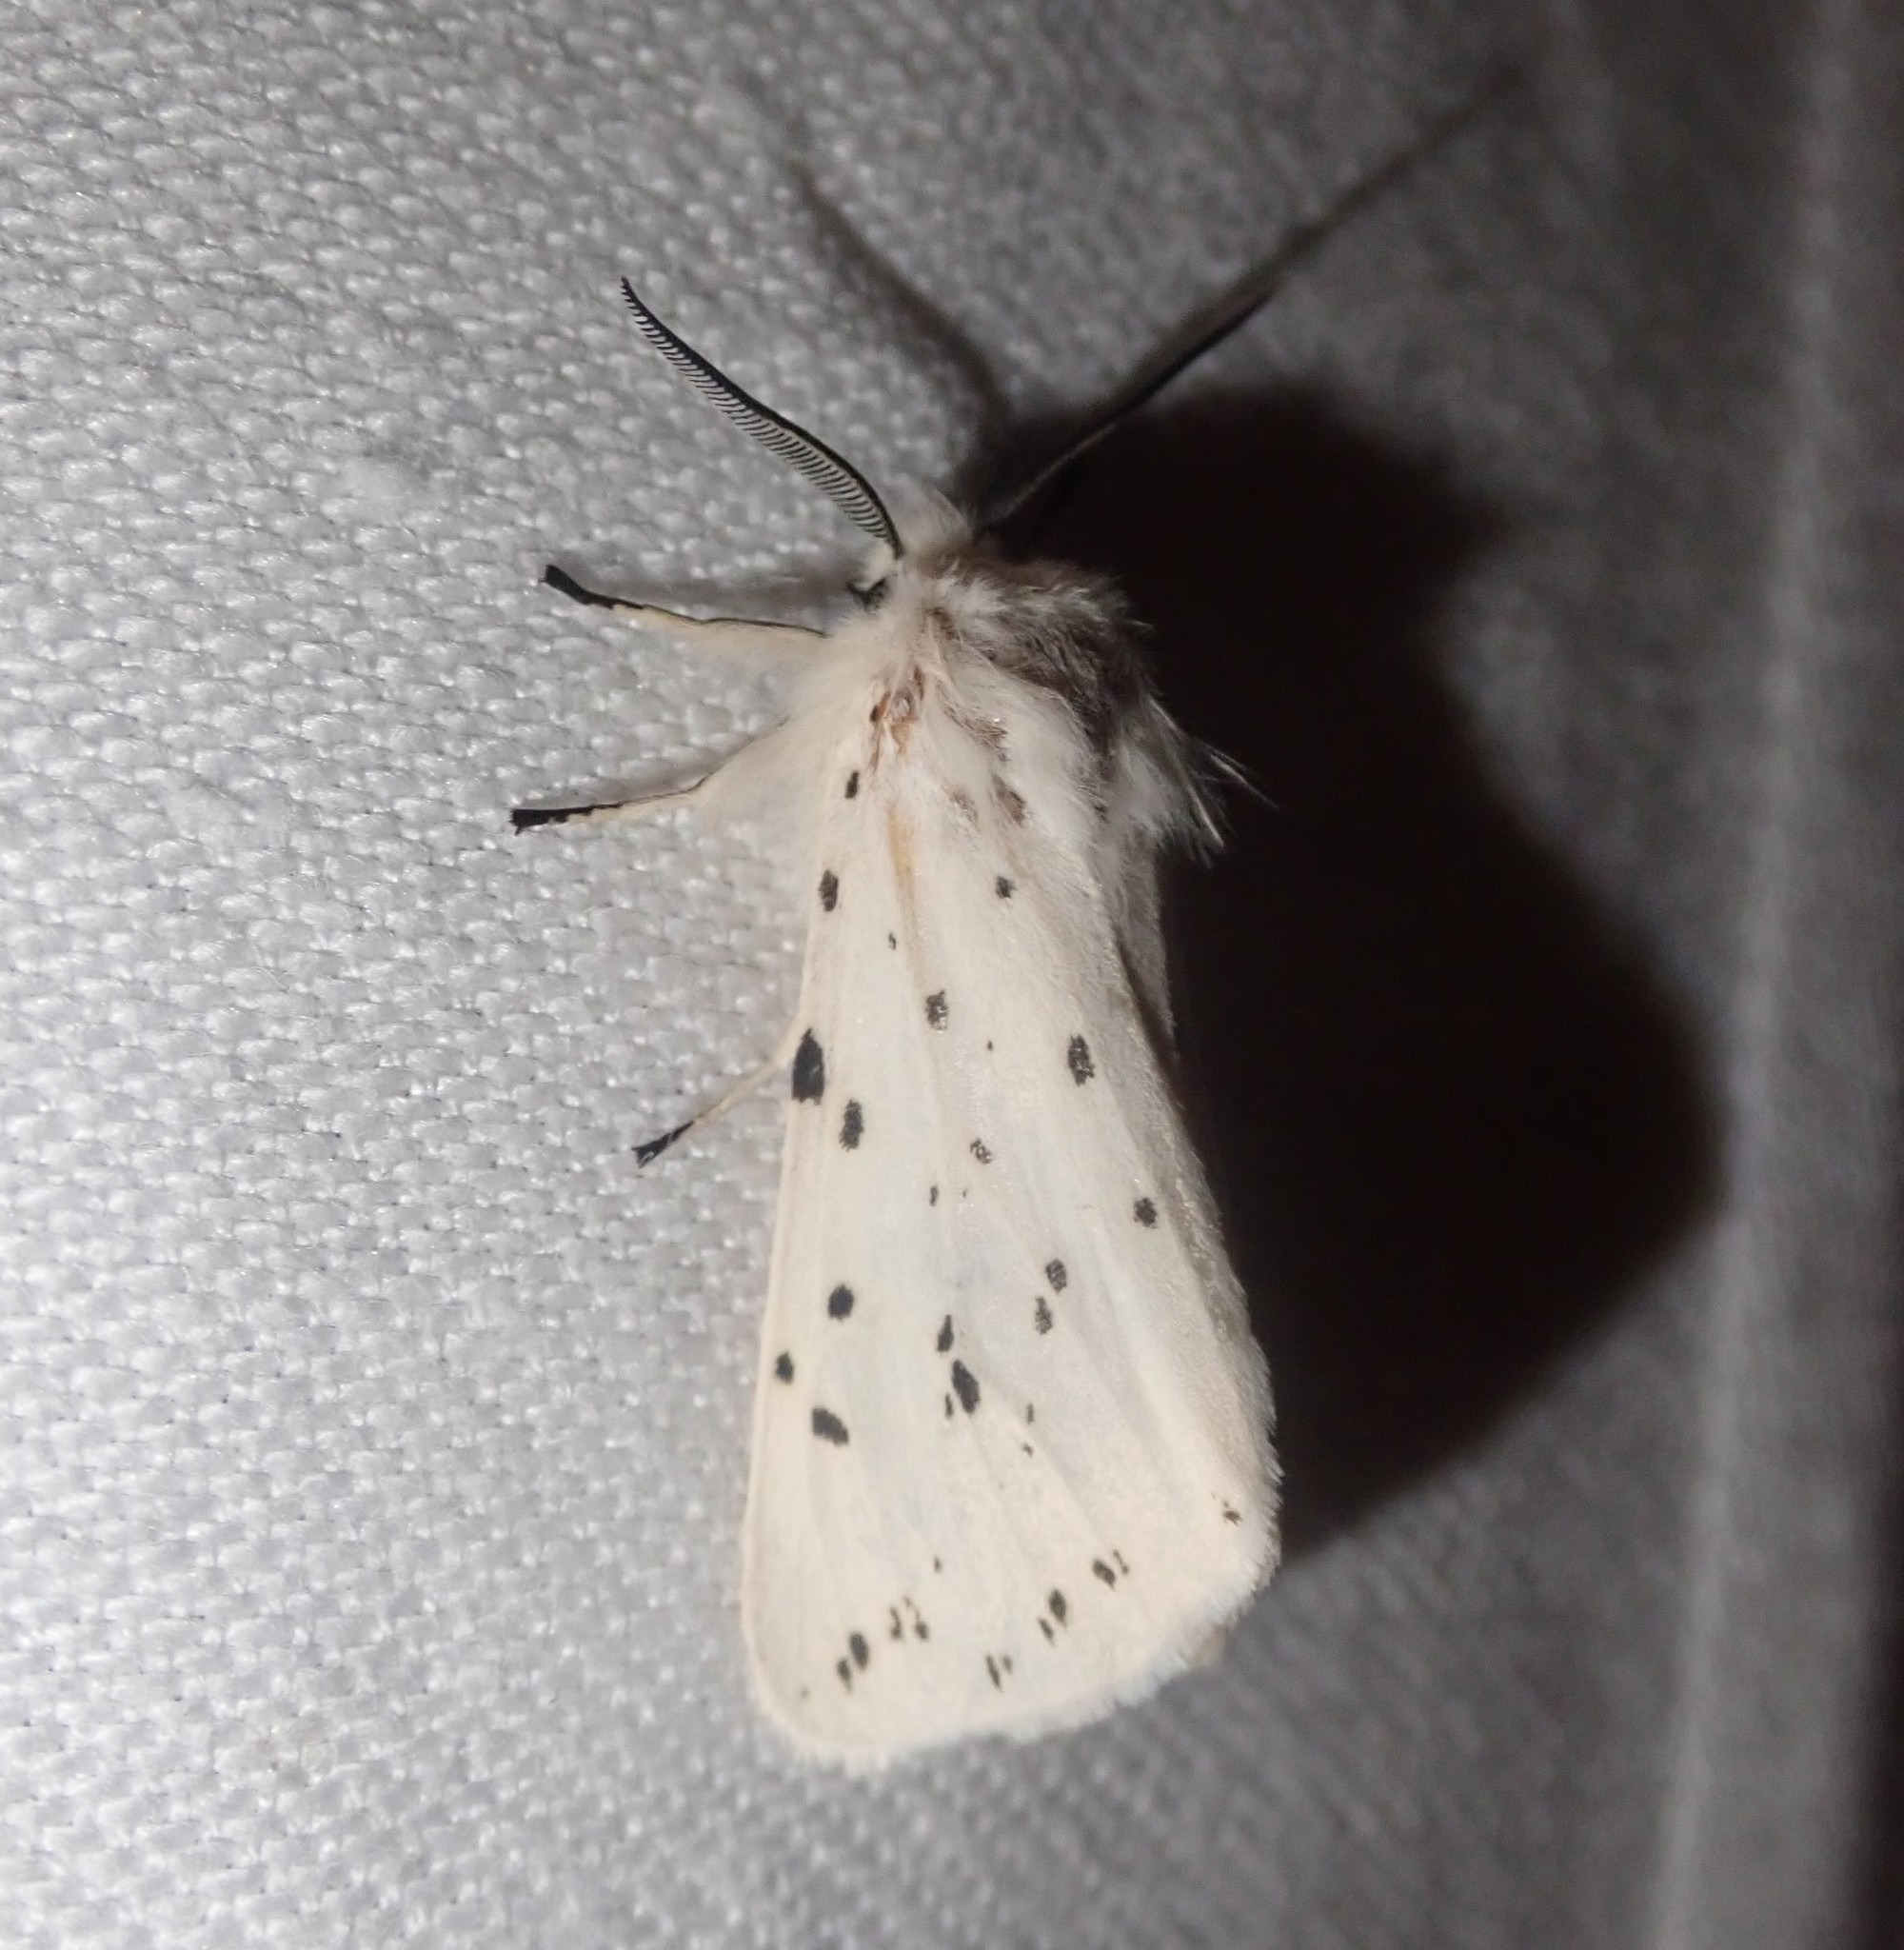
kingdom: Animalia
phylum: Arthropoda
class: Insecta
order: Lepidoptera
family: Erebidae
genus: Spilosoma
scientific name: Spilosoma lubricipeda
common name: White ermine
